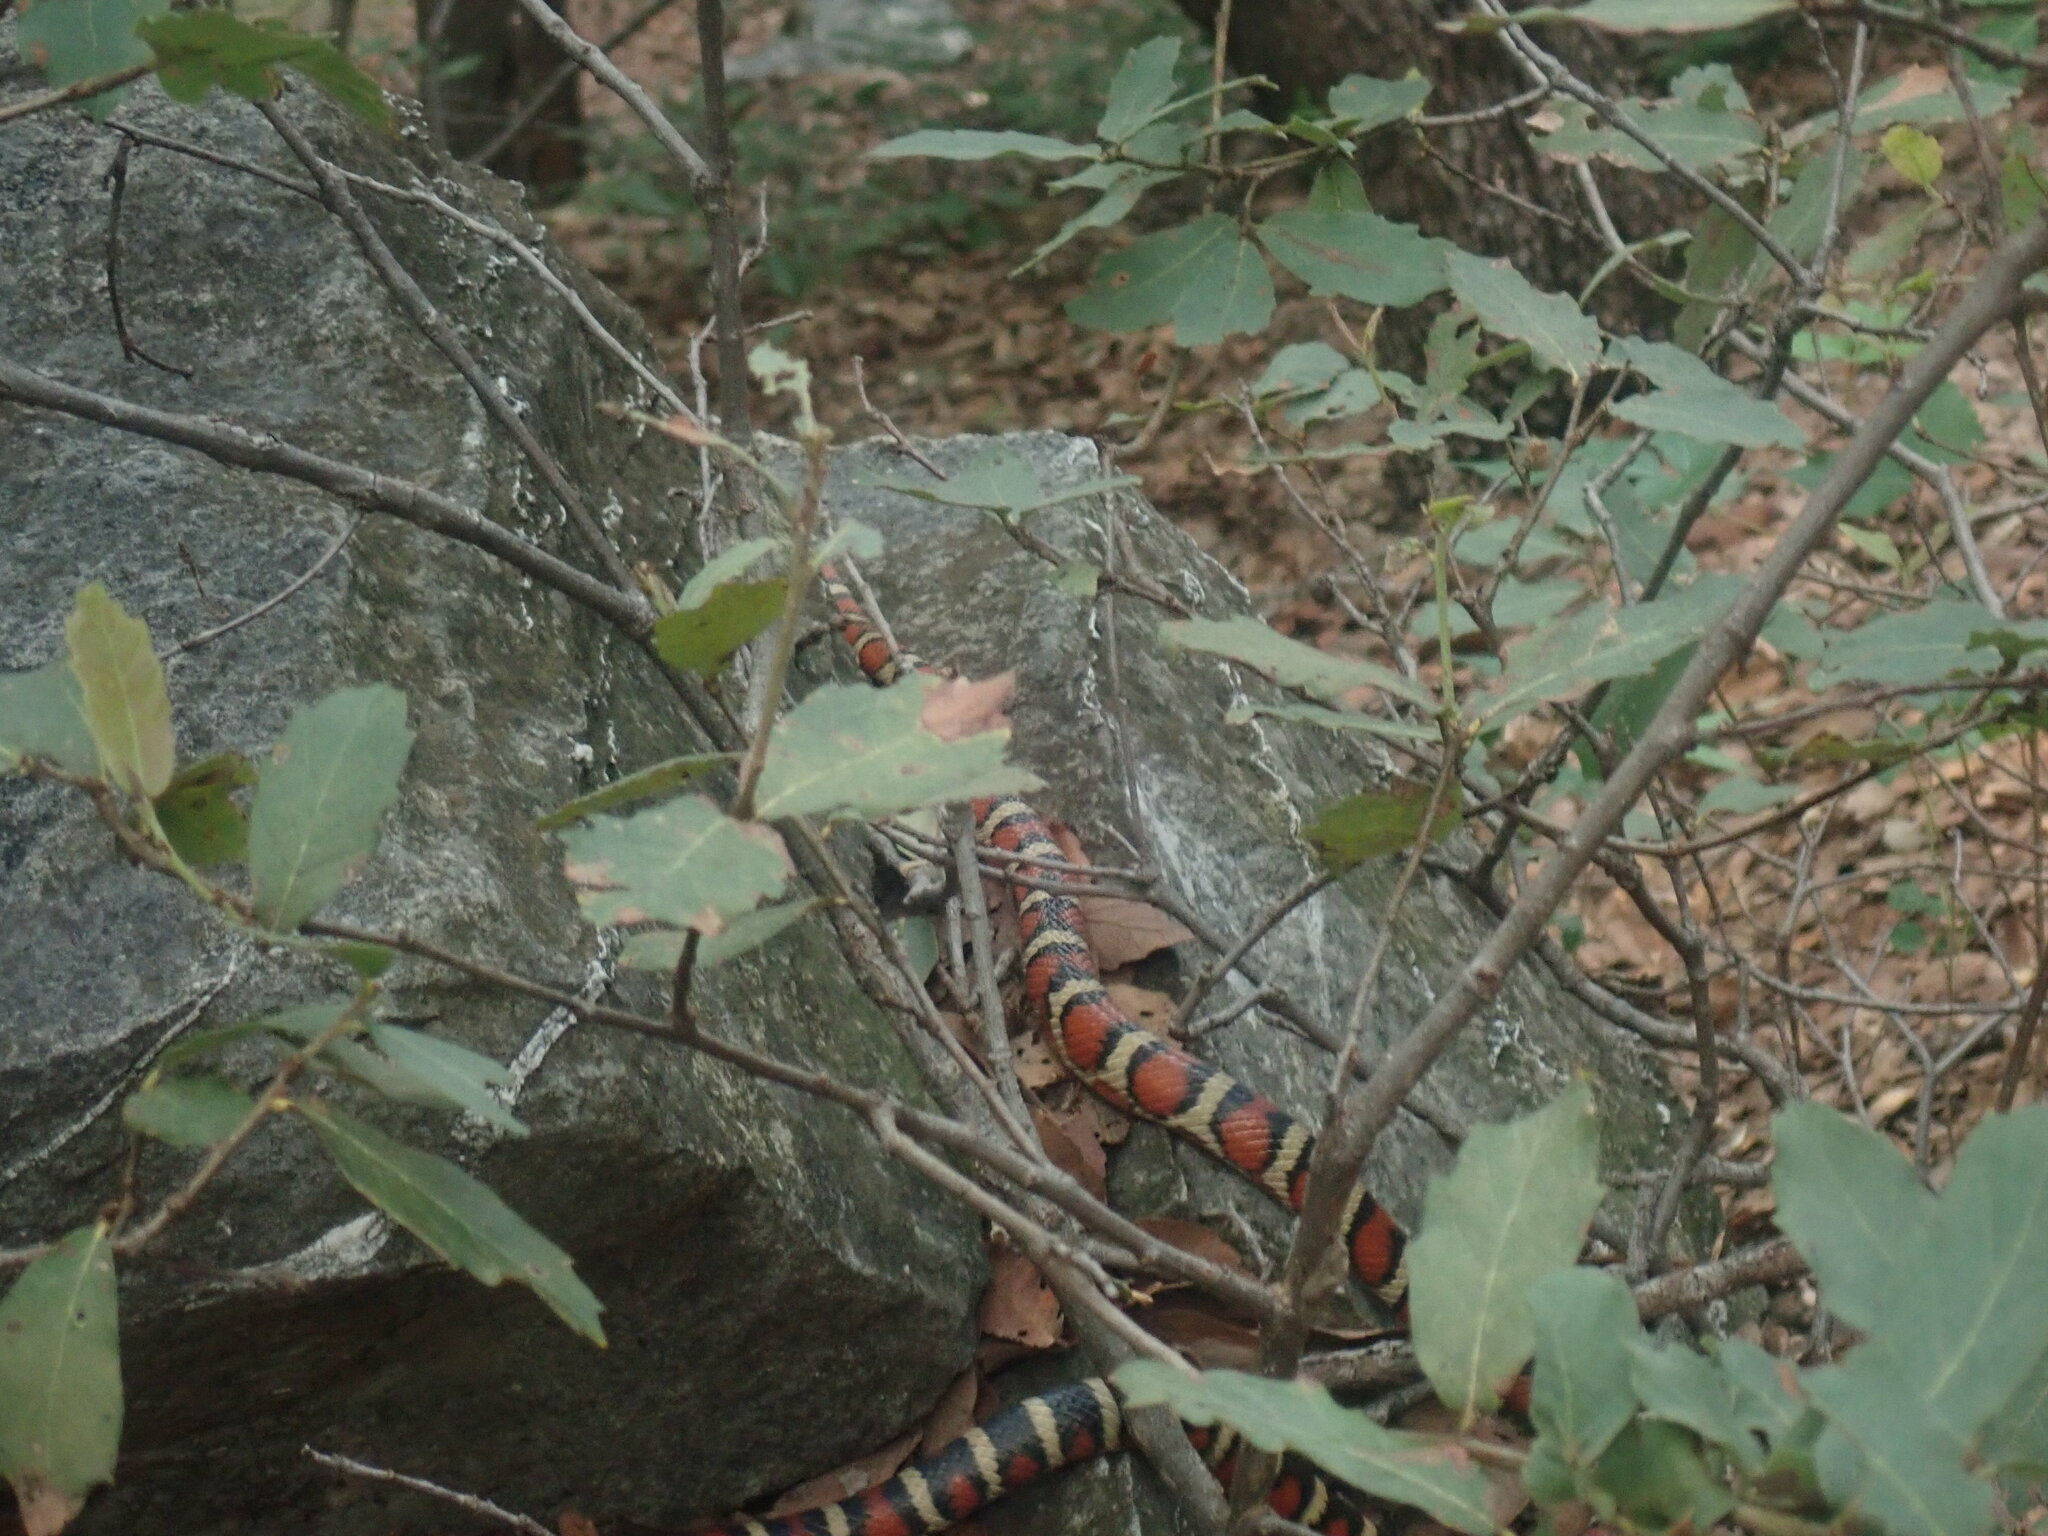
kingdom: Animalia
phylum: Chordata
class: Squamata
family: Colubridae
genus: Lampropeltis
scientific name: Lampropeltis knoblochi
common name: Chihuahuan mountain kingsnake
